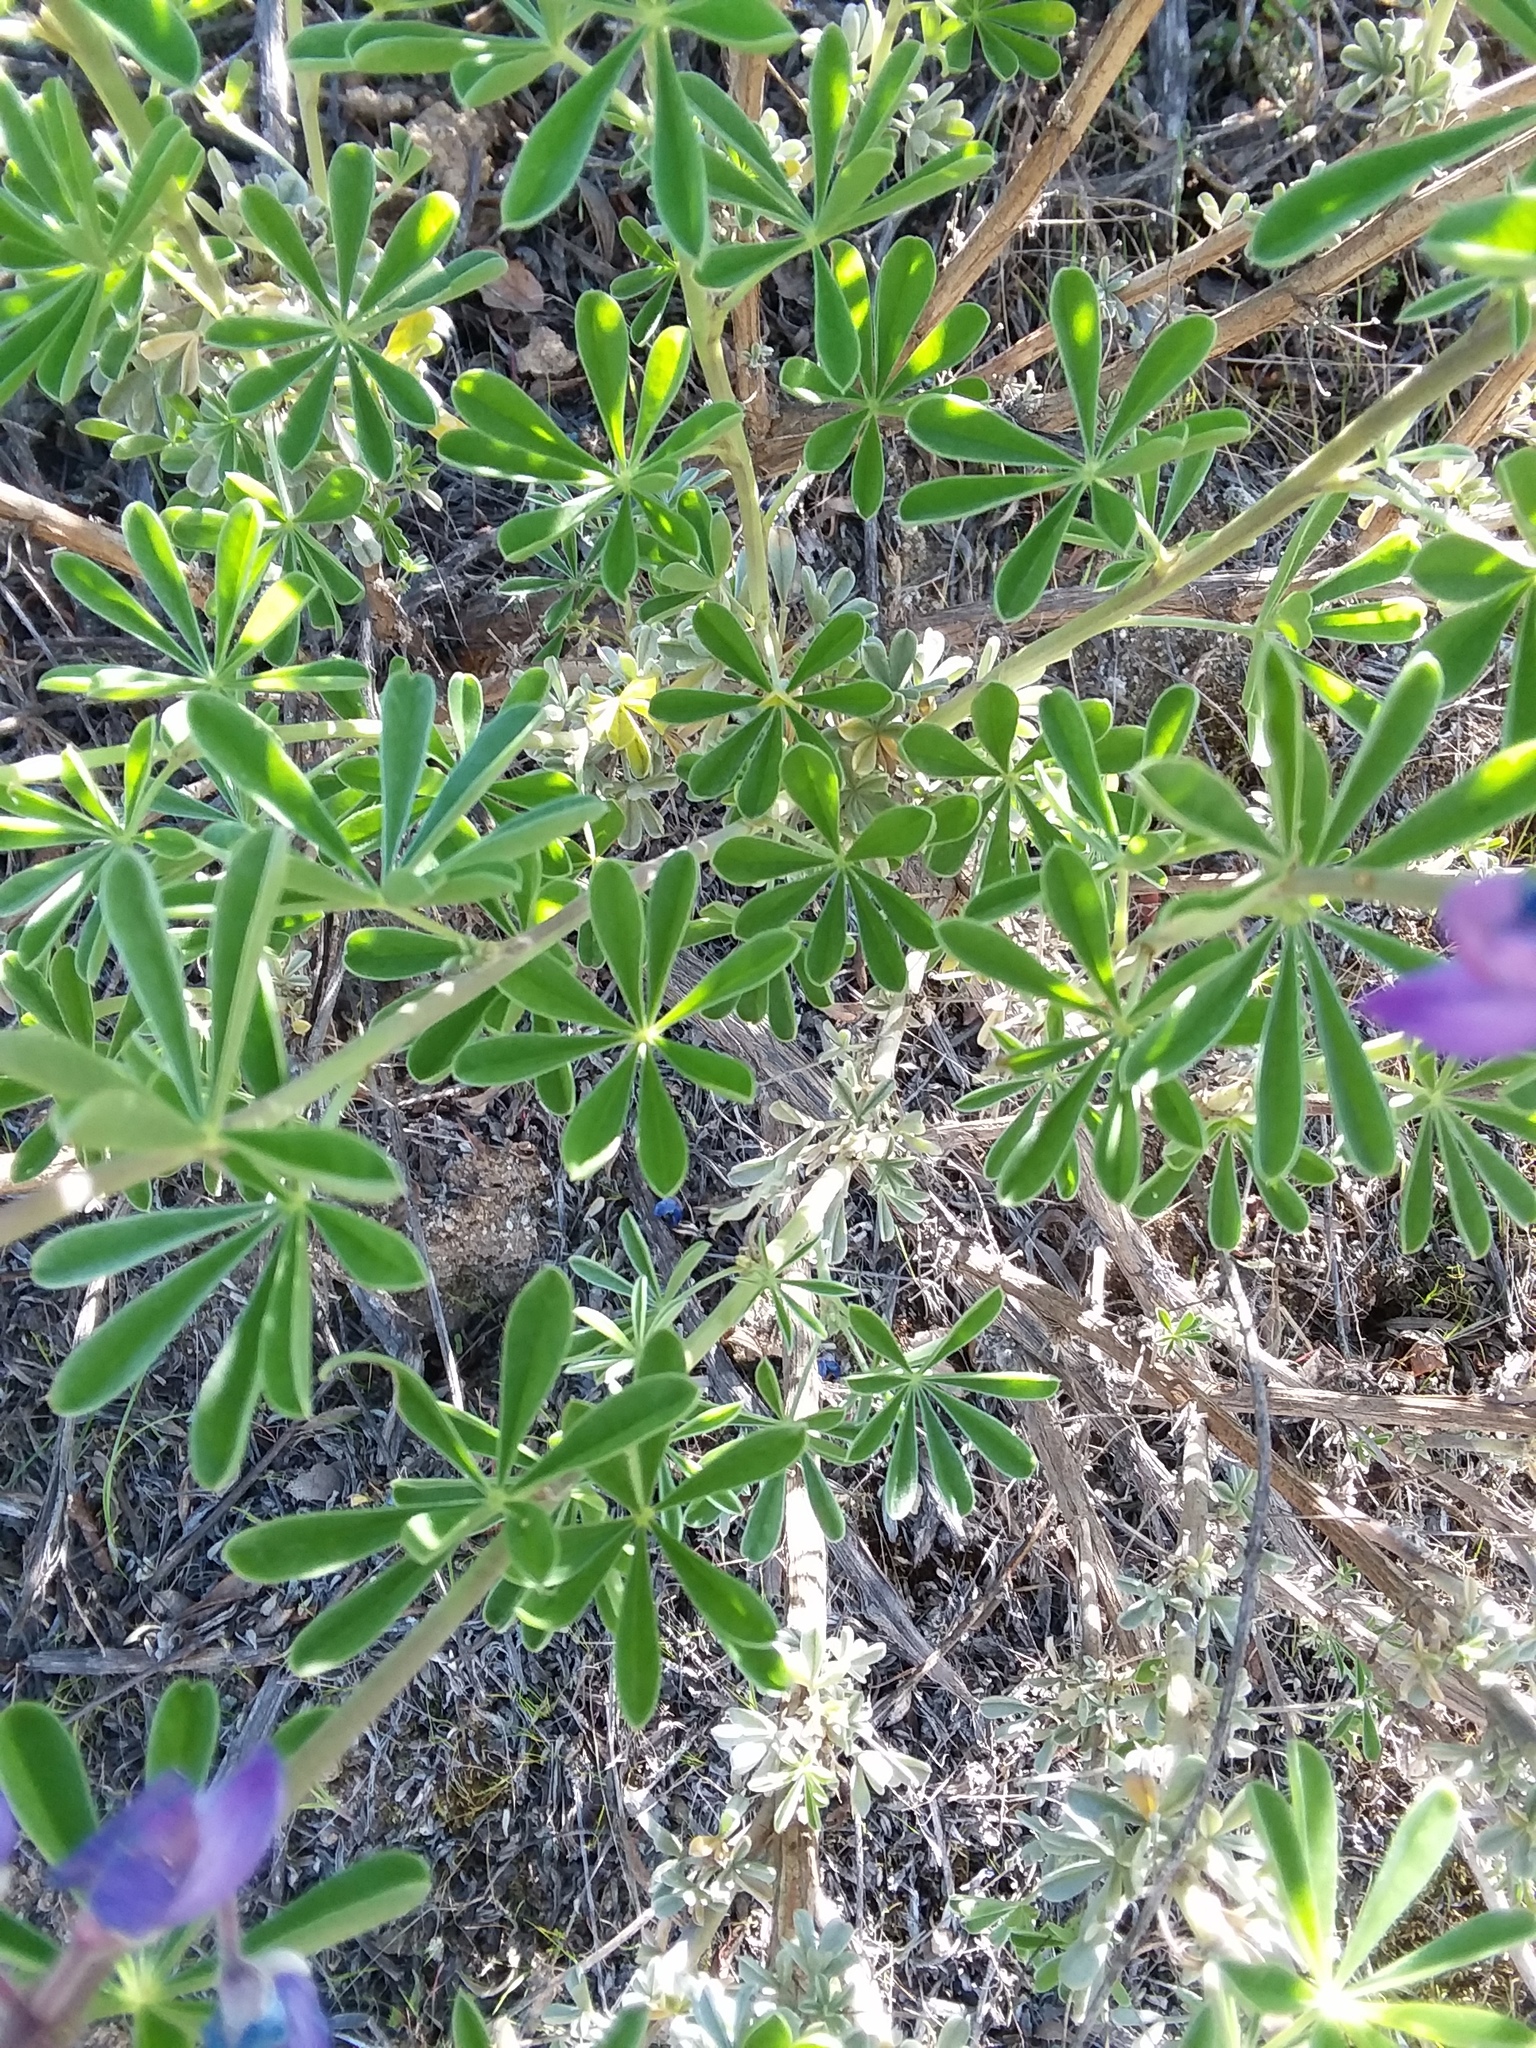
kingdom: Plantae
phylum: Tracheophyta
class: Magnoliopsida
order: Fabales
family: Fabaceae
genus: Lupinus
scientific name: Lupinus albifrons
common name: Foothill lupine
